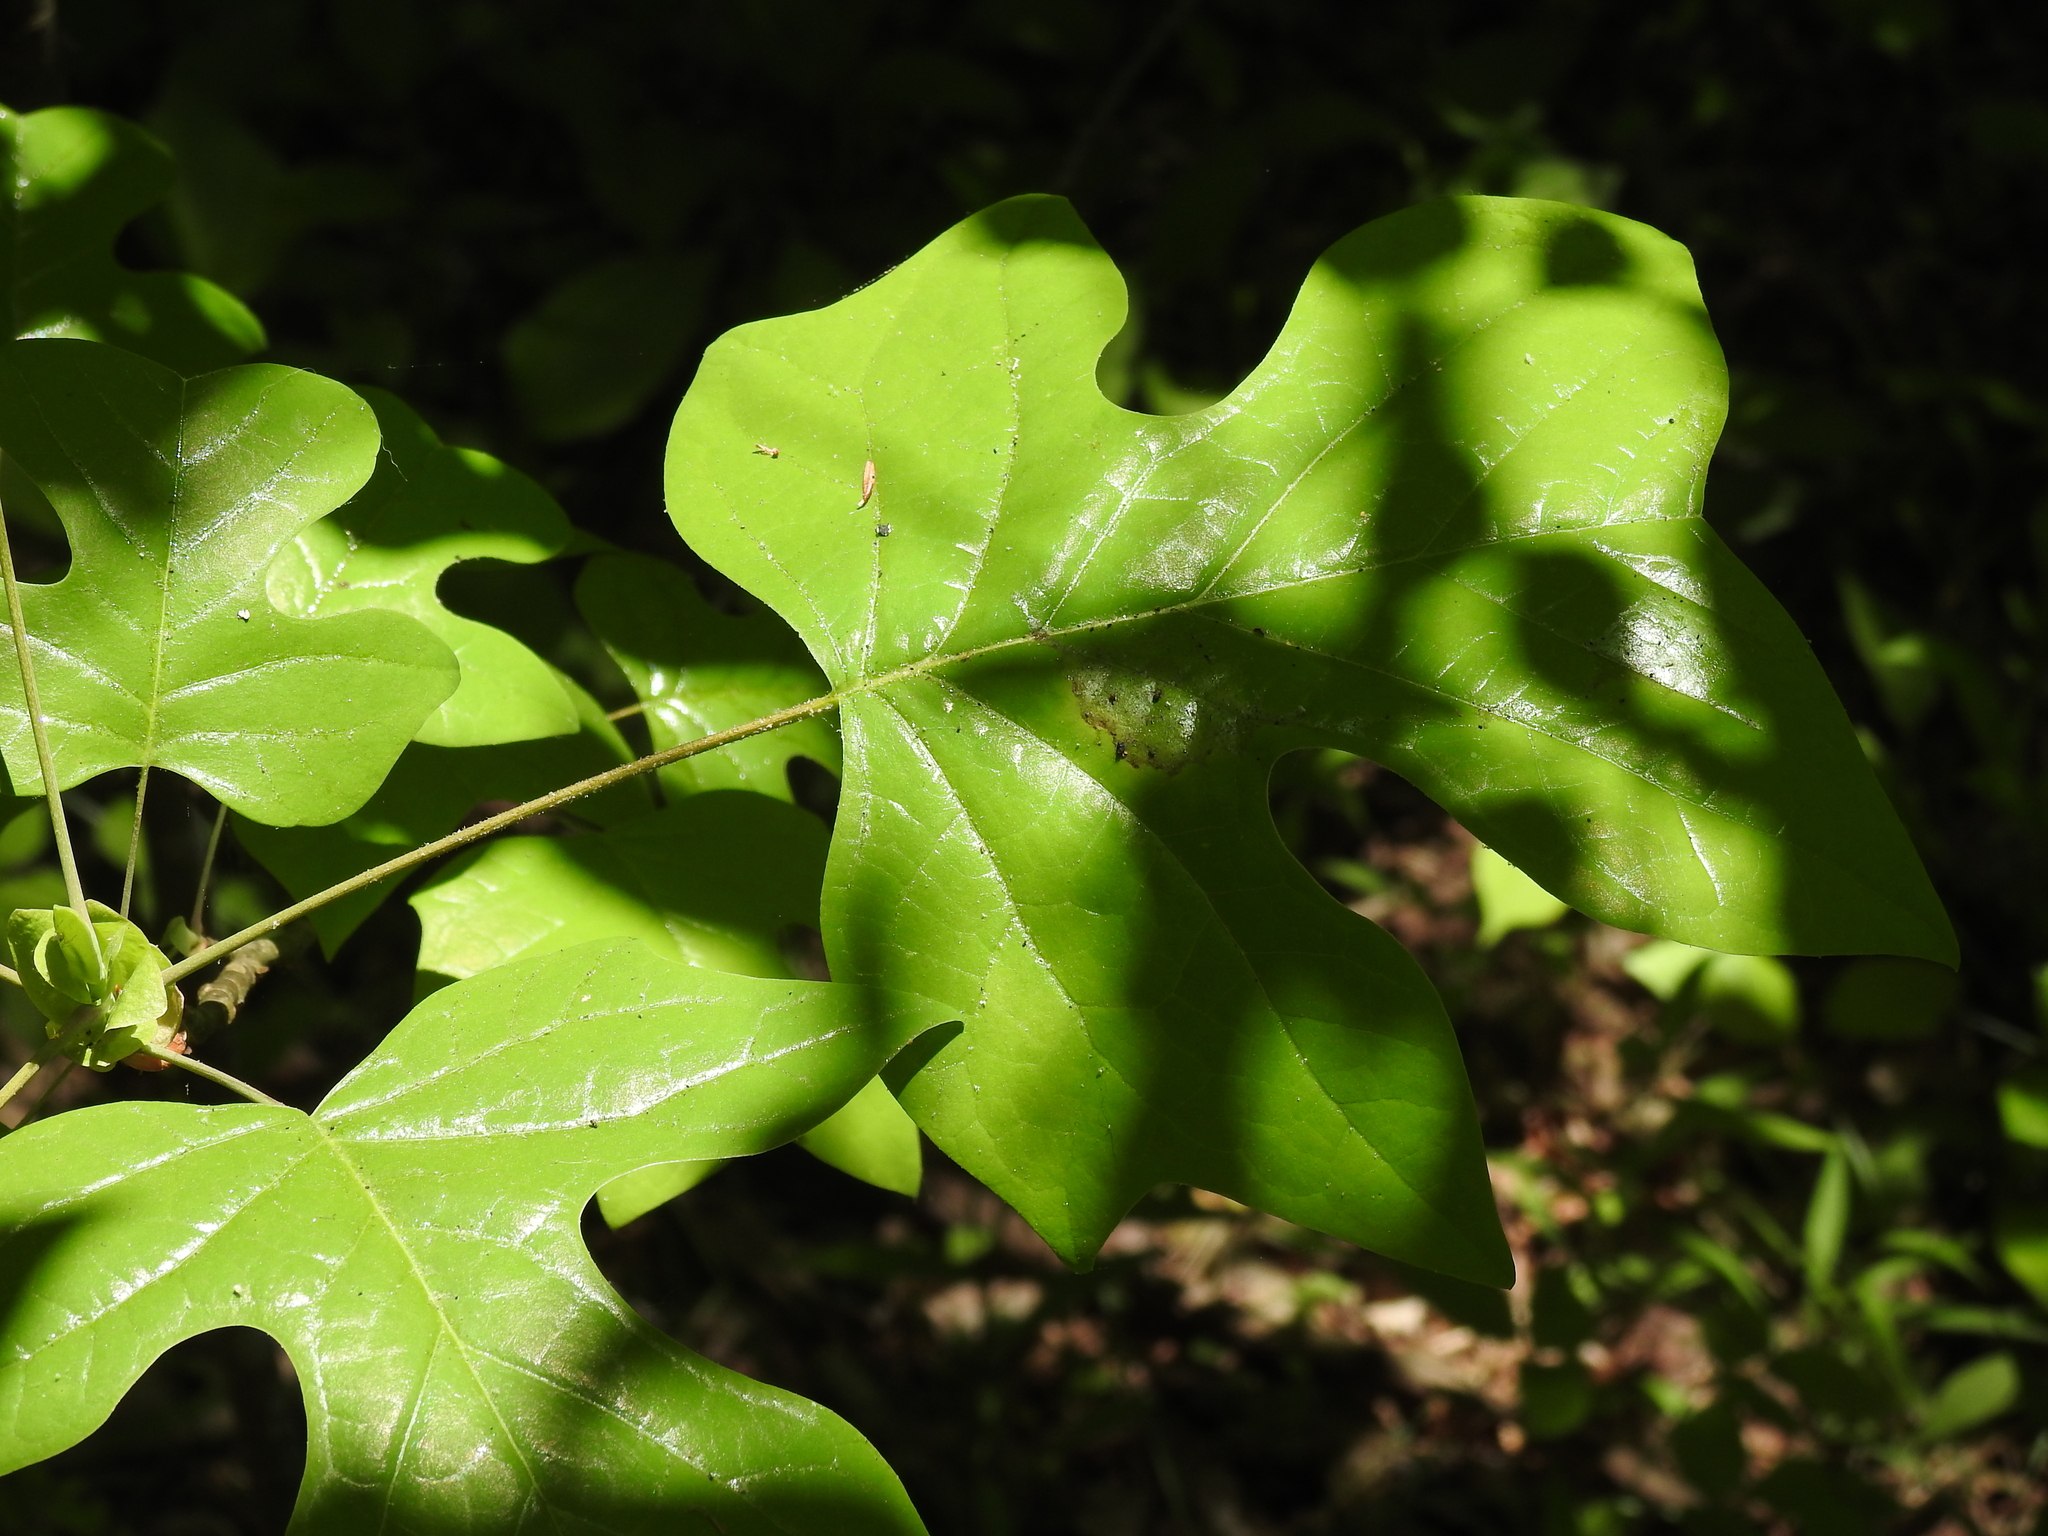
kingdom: Plantae
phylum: Tracheophyta
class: Magnoliopsida
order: Magnoliales
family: Magnoliaceae
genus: Liriodendron
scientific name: Liriodendron tulipifera
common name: Tulip tree
